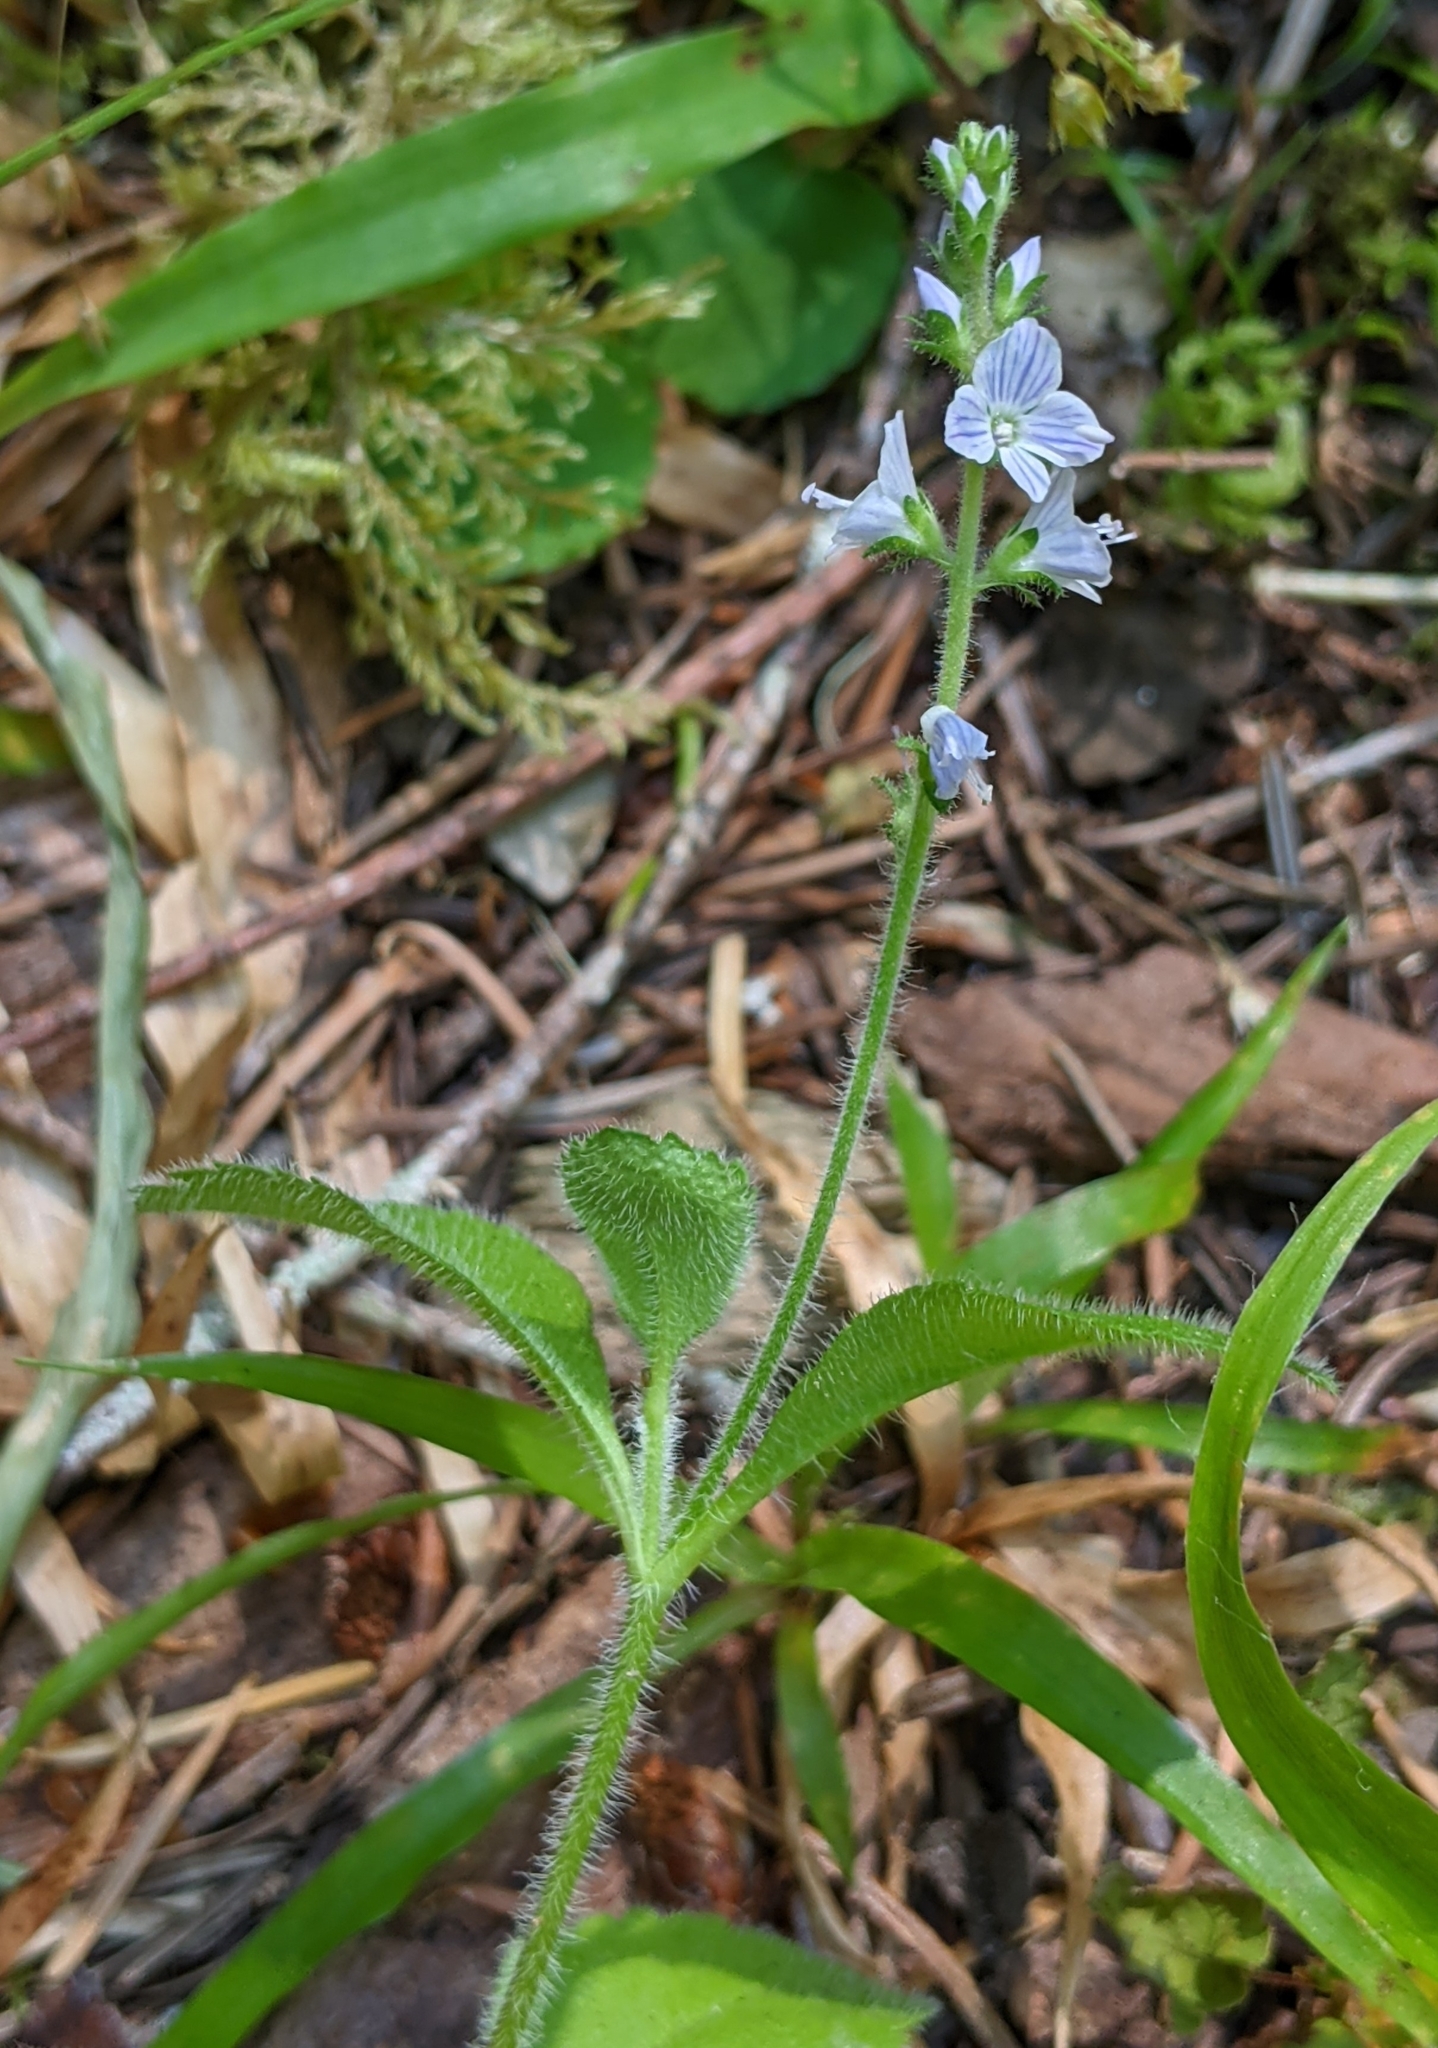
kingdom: Plantae
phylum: Tracheophyta
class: Magnoliopsida
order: Lamiales
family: Plantaginaceae
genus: Veronica
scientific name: Veronica officinalis
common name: Common speedwell
